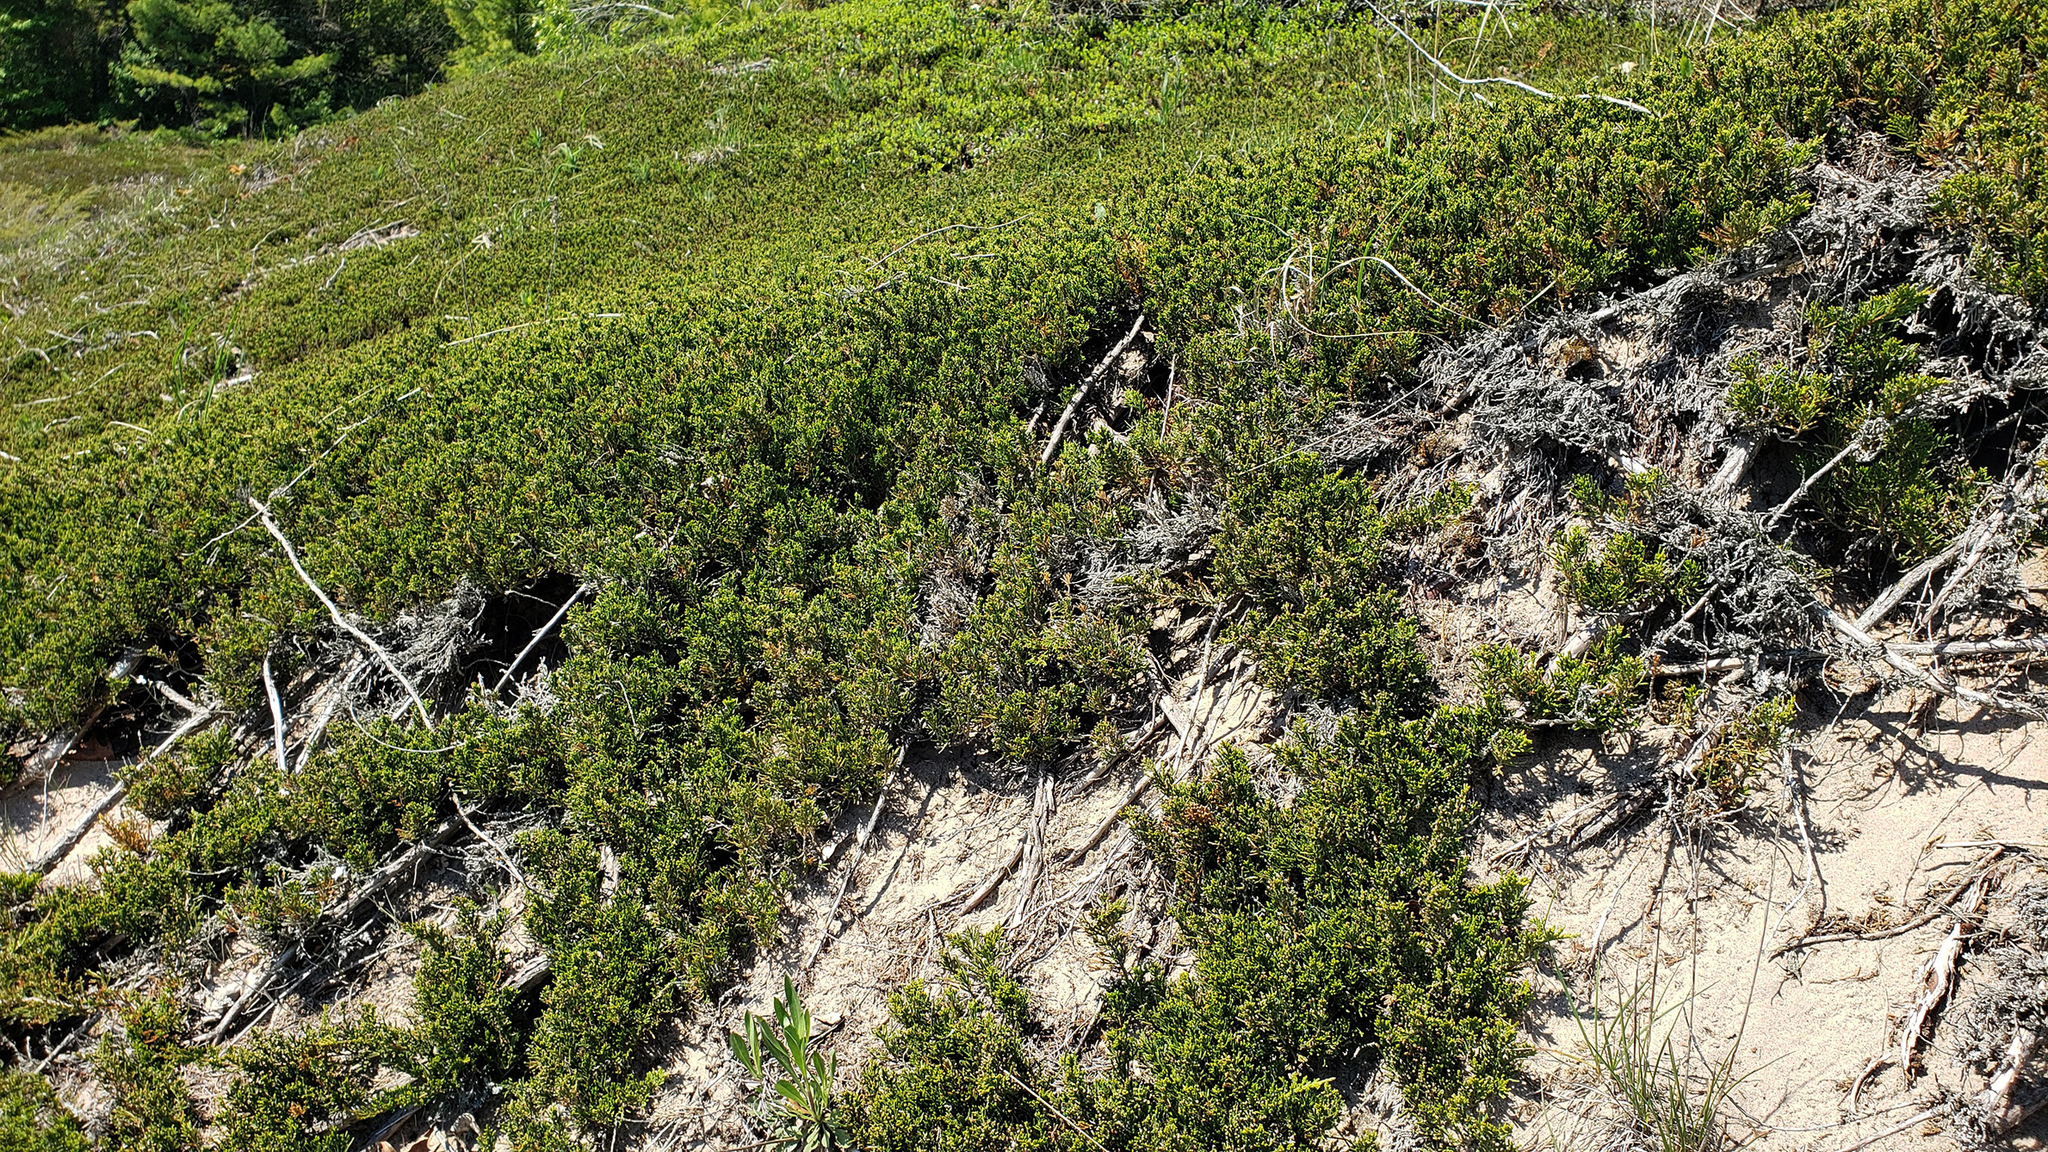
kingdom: Plantae
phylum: Tracheophyta
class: Pinopsida
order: Pinales
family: Cupressaceae
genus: Juniperus
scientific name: Juniperus horizontalis
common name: Creeping juniper
